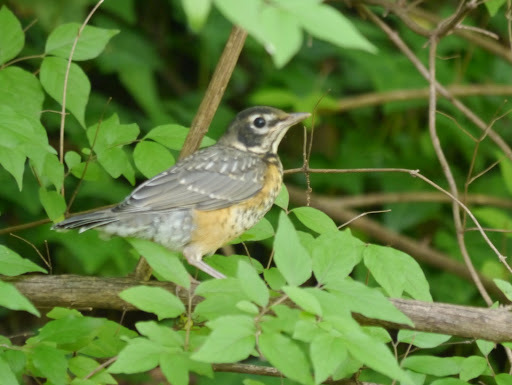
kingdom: Animalia
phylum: Chordata
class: Aves
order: Passeriformes
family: Turdidae
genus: Turdus
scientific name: Turdus migratorius
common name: American robin
